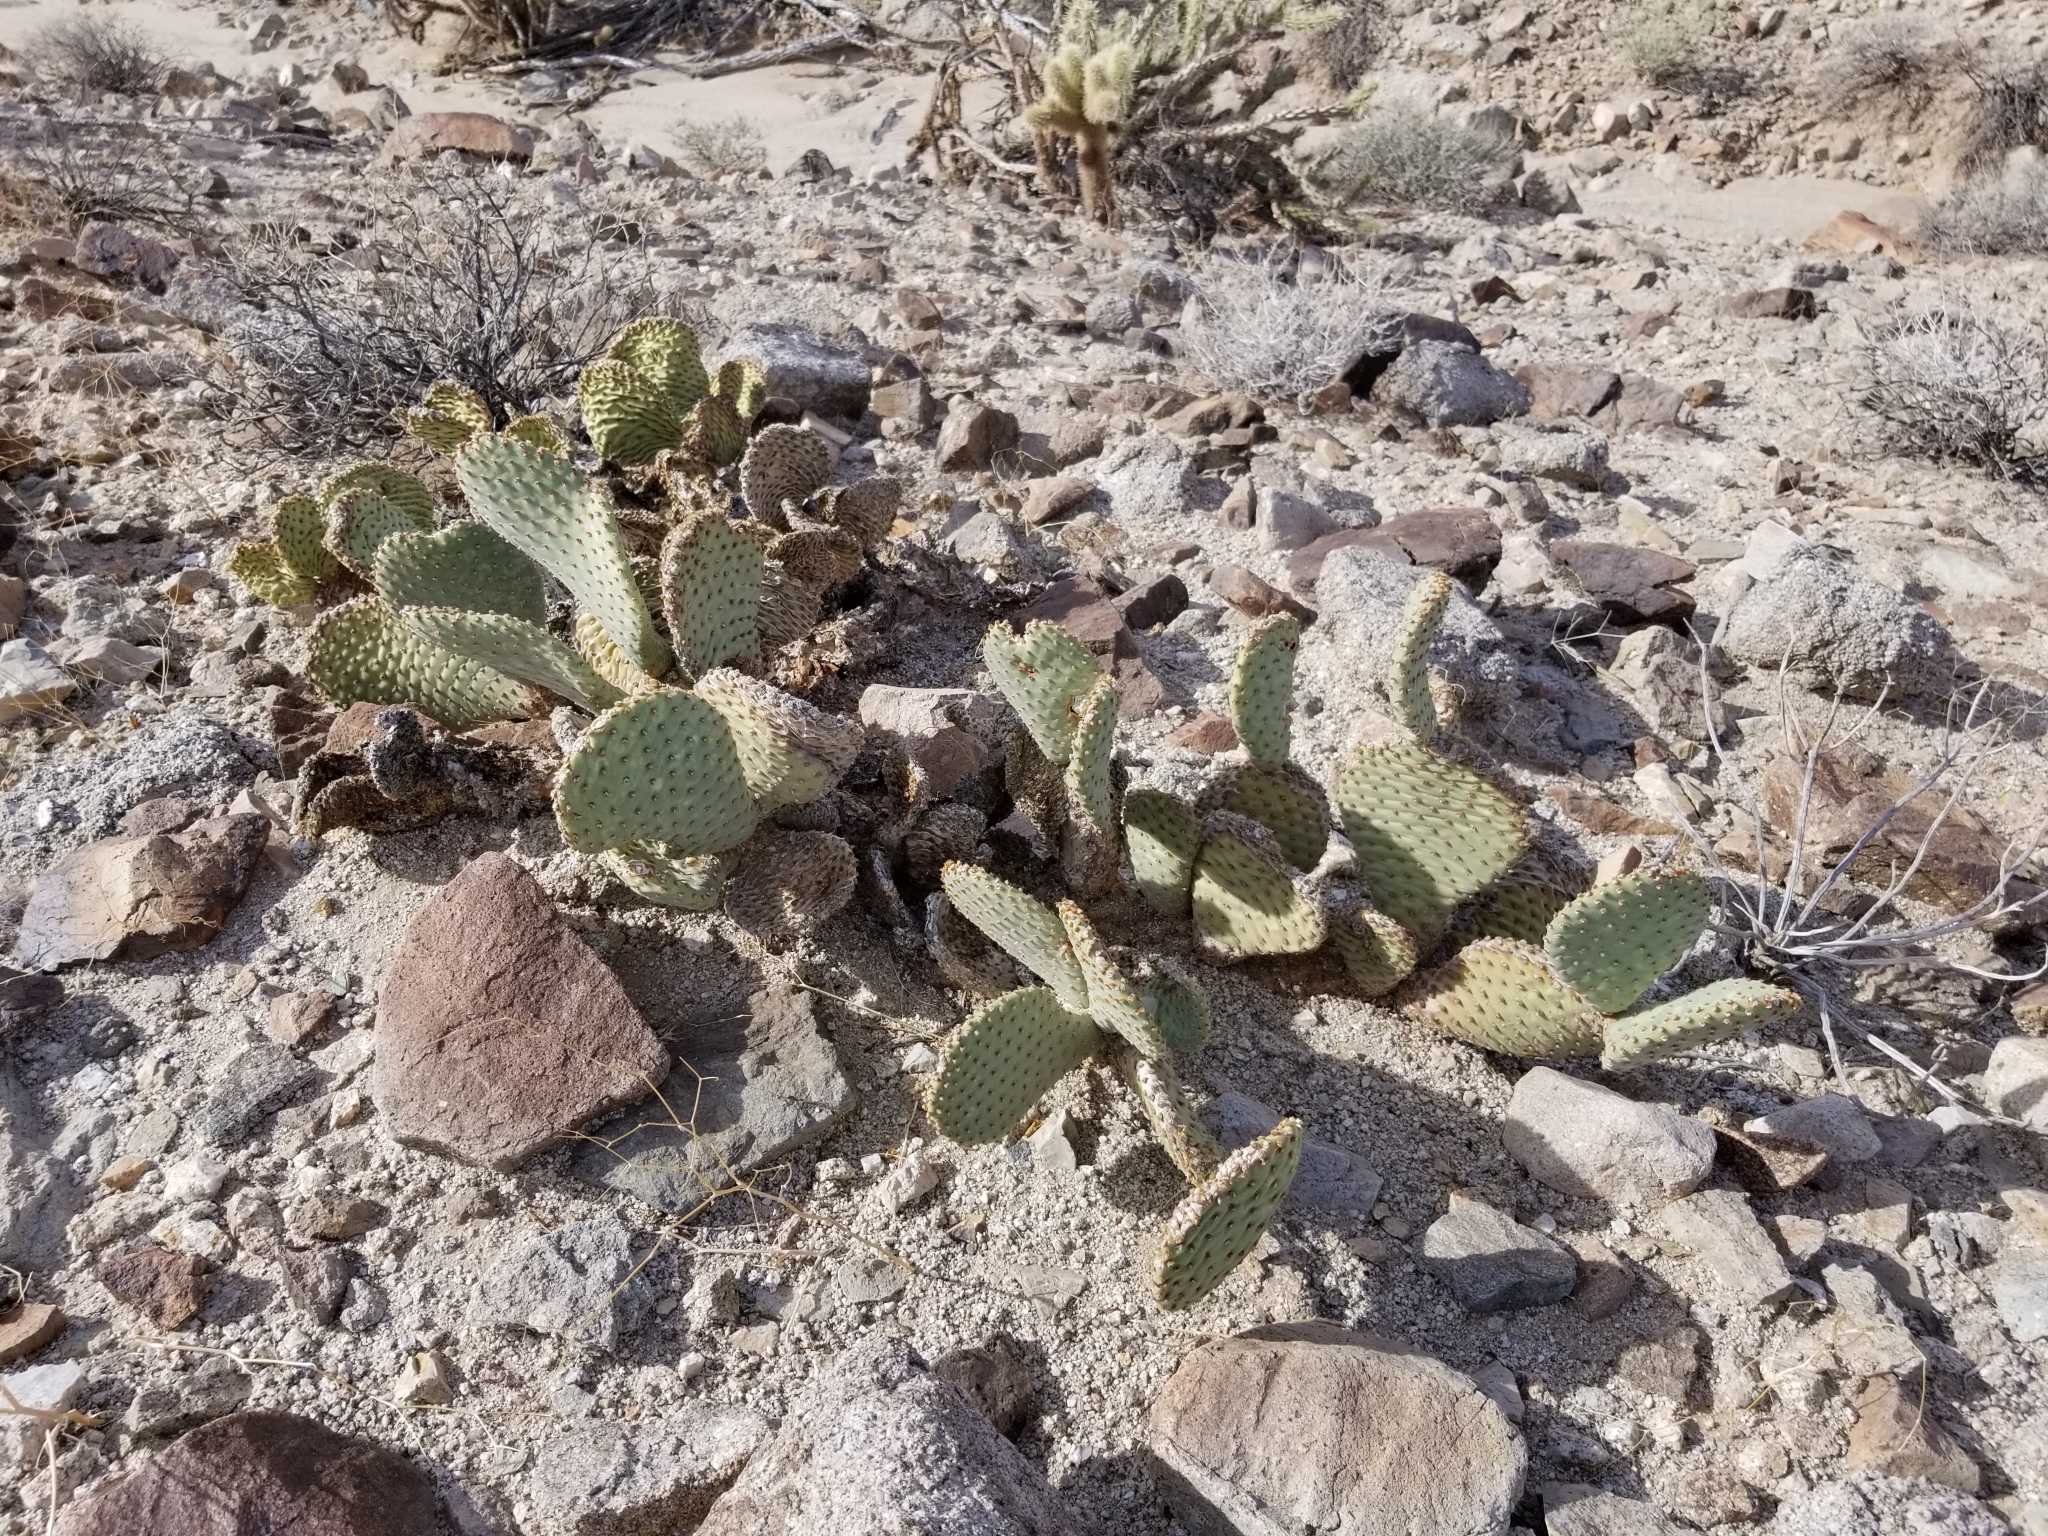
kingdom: Plantae
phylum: Tracheophyta
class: Magnoliopsida
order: Caryophyllales
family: Cactaceae
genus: Opuntia
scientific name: Opuntia basilaris
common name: Beavertail prickly-pear
